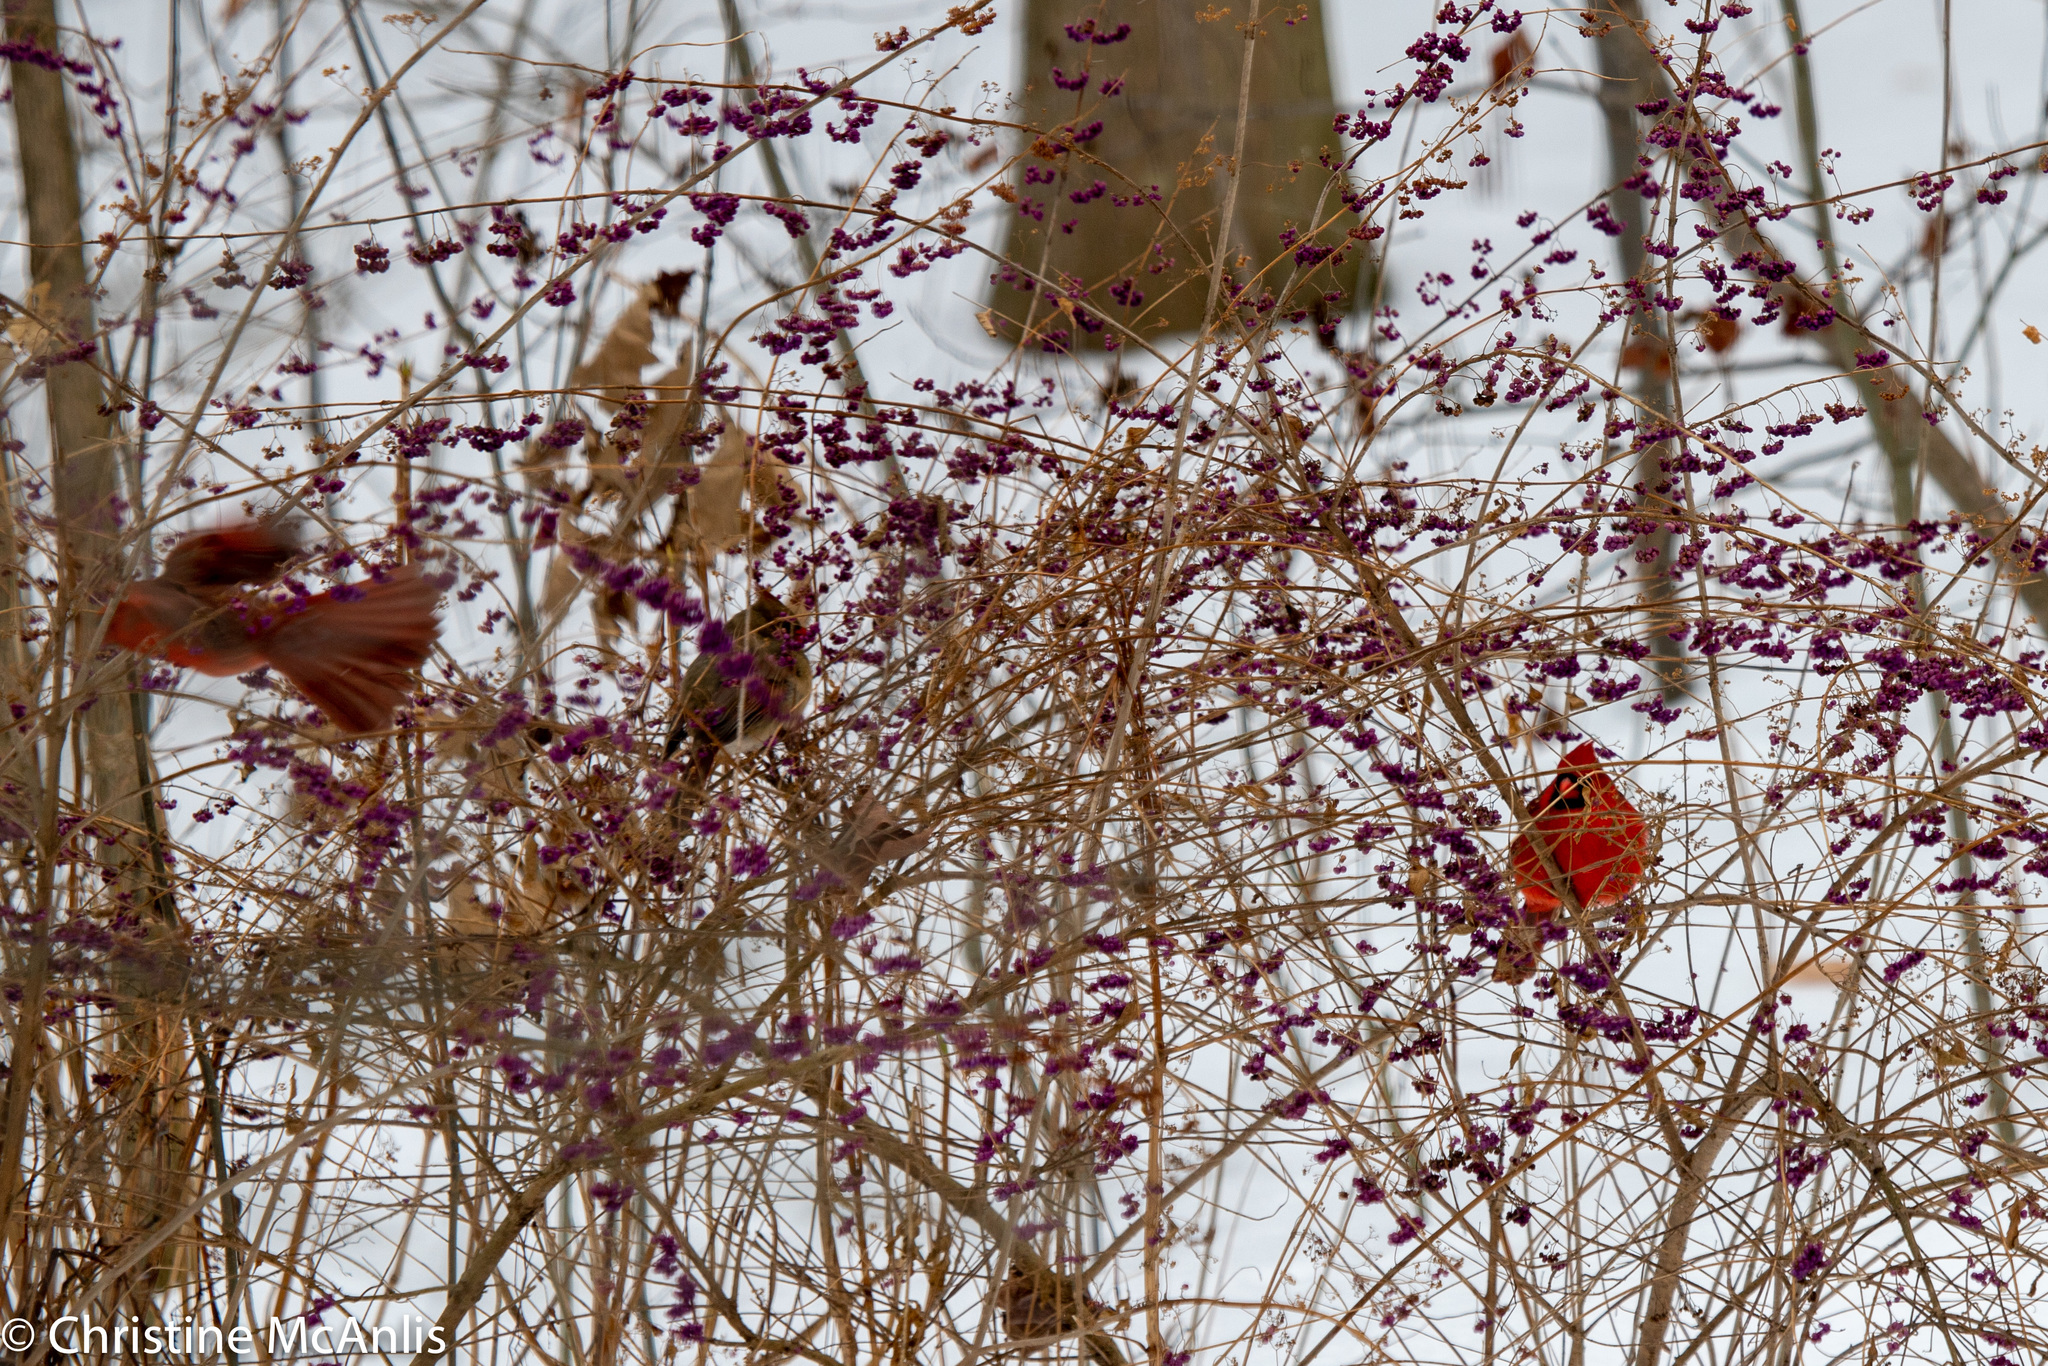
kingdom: Animalia
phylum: Chordata
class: Aves
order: Passeriformes
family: Cardinalidae
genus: Cardinalis
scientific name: Cardinalis cardinalis
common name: Northern cardinal
